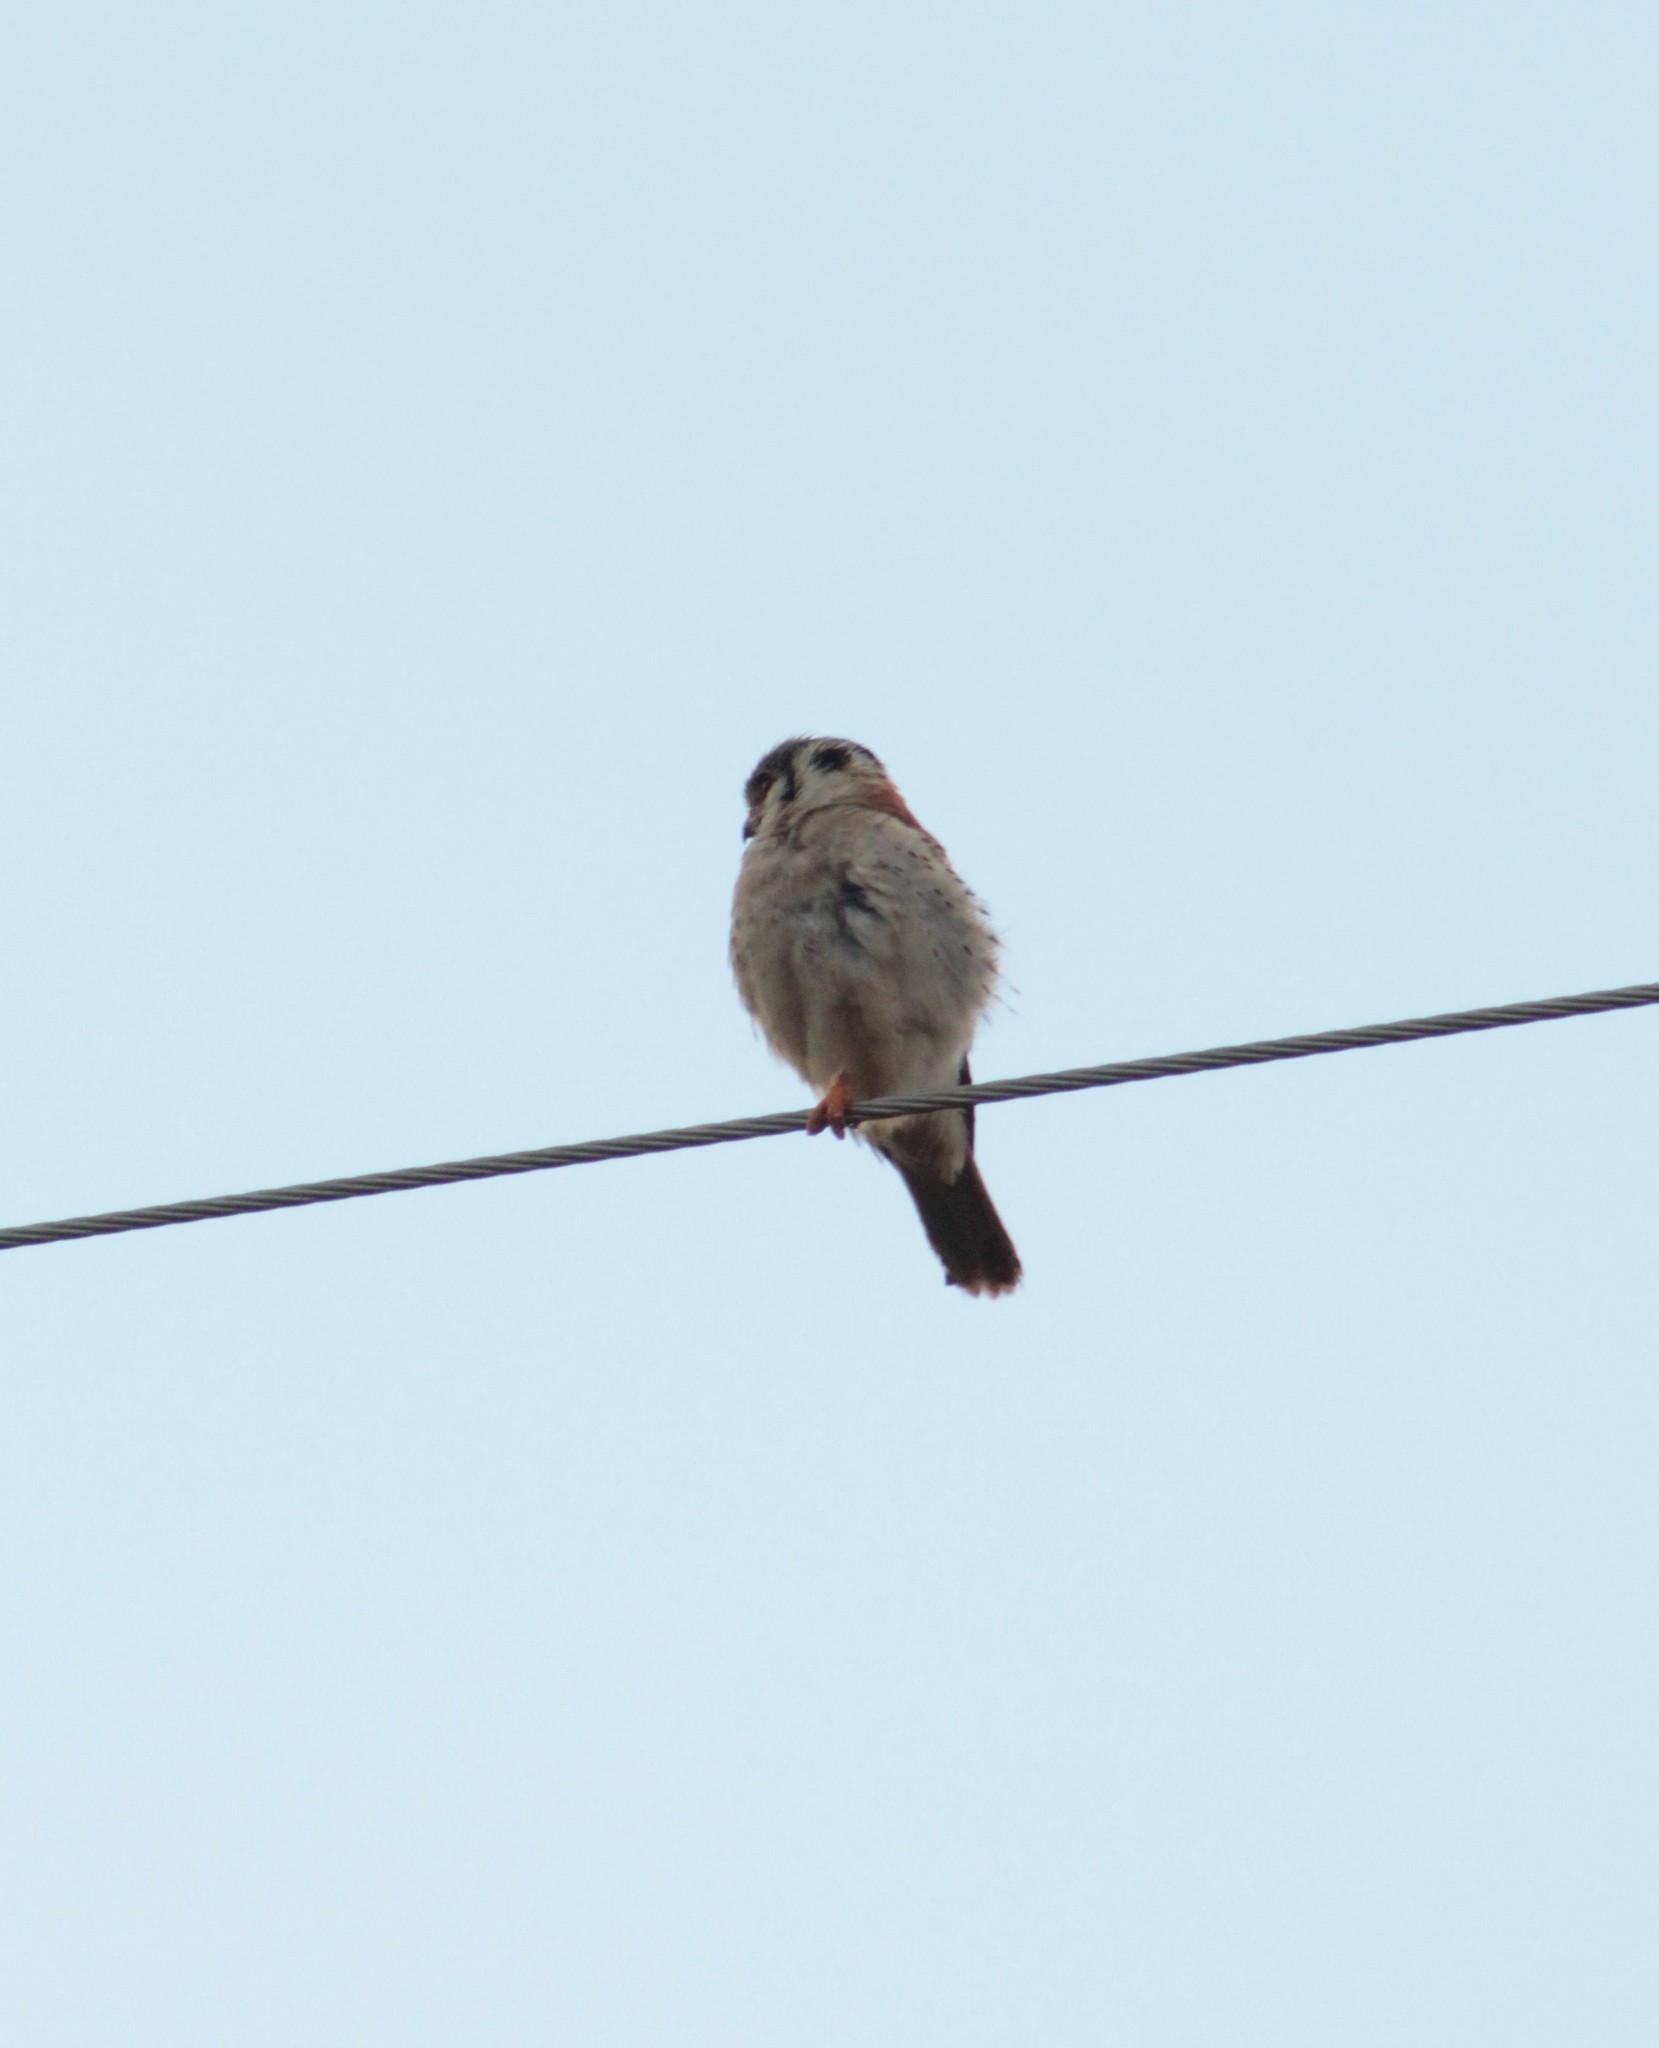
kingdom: Animalia
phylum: Chordata
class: Aves
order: Falconiformes
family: Falconidae
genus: Falco
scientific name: Falco sparverius
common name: American kestrel
